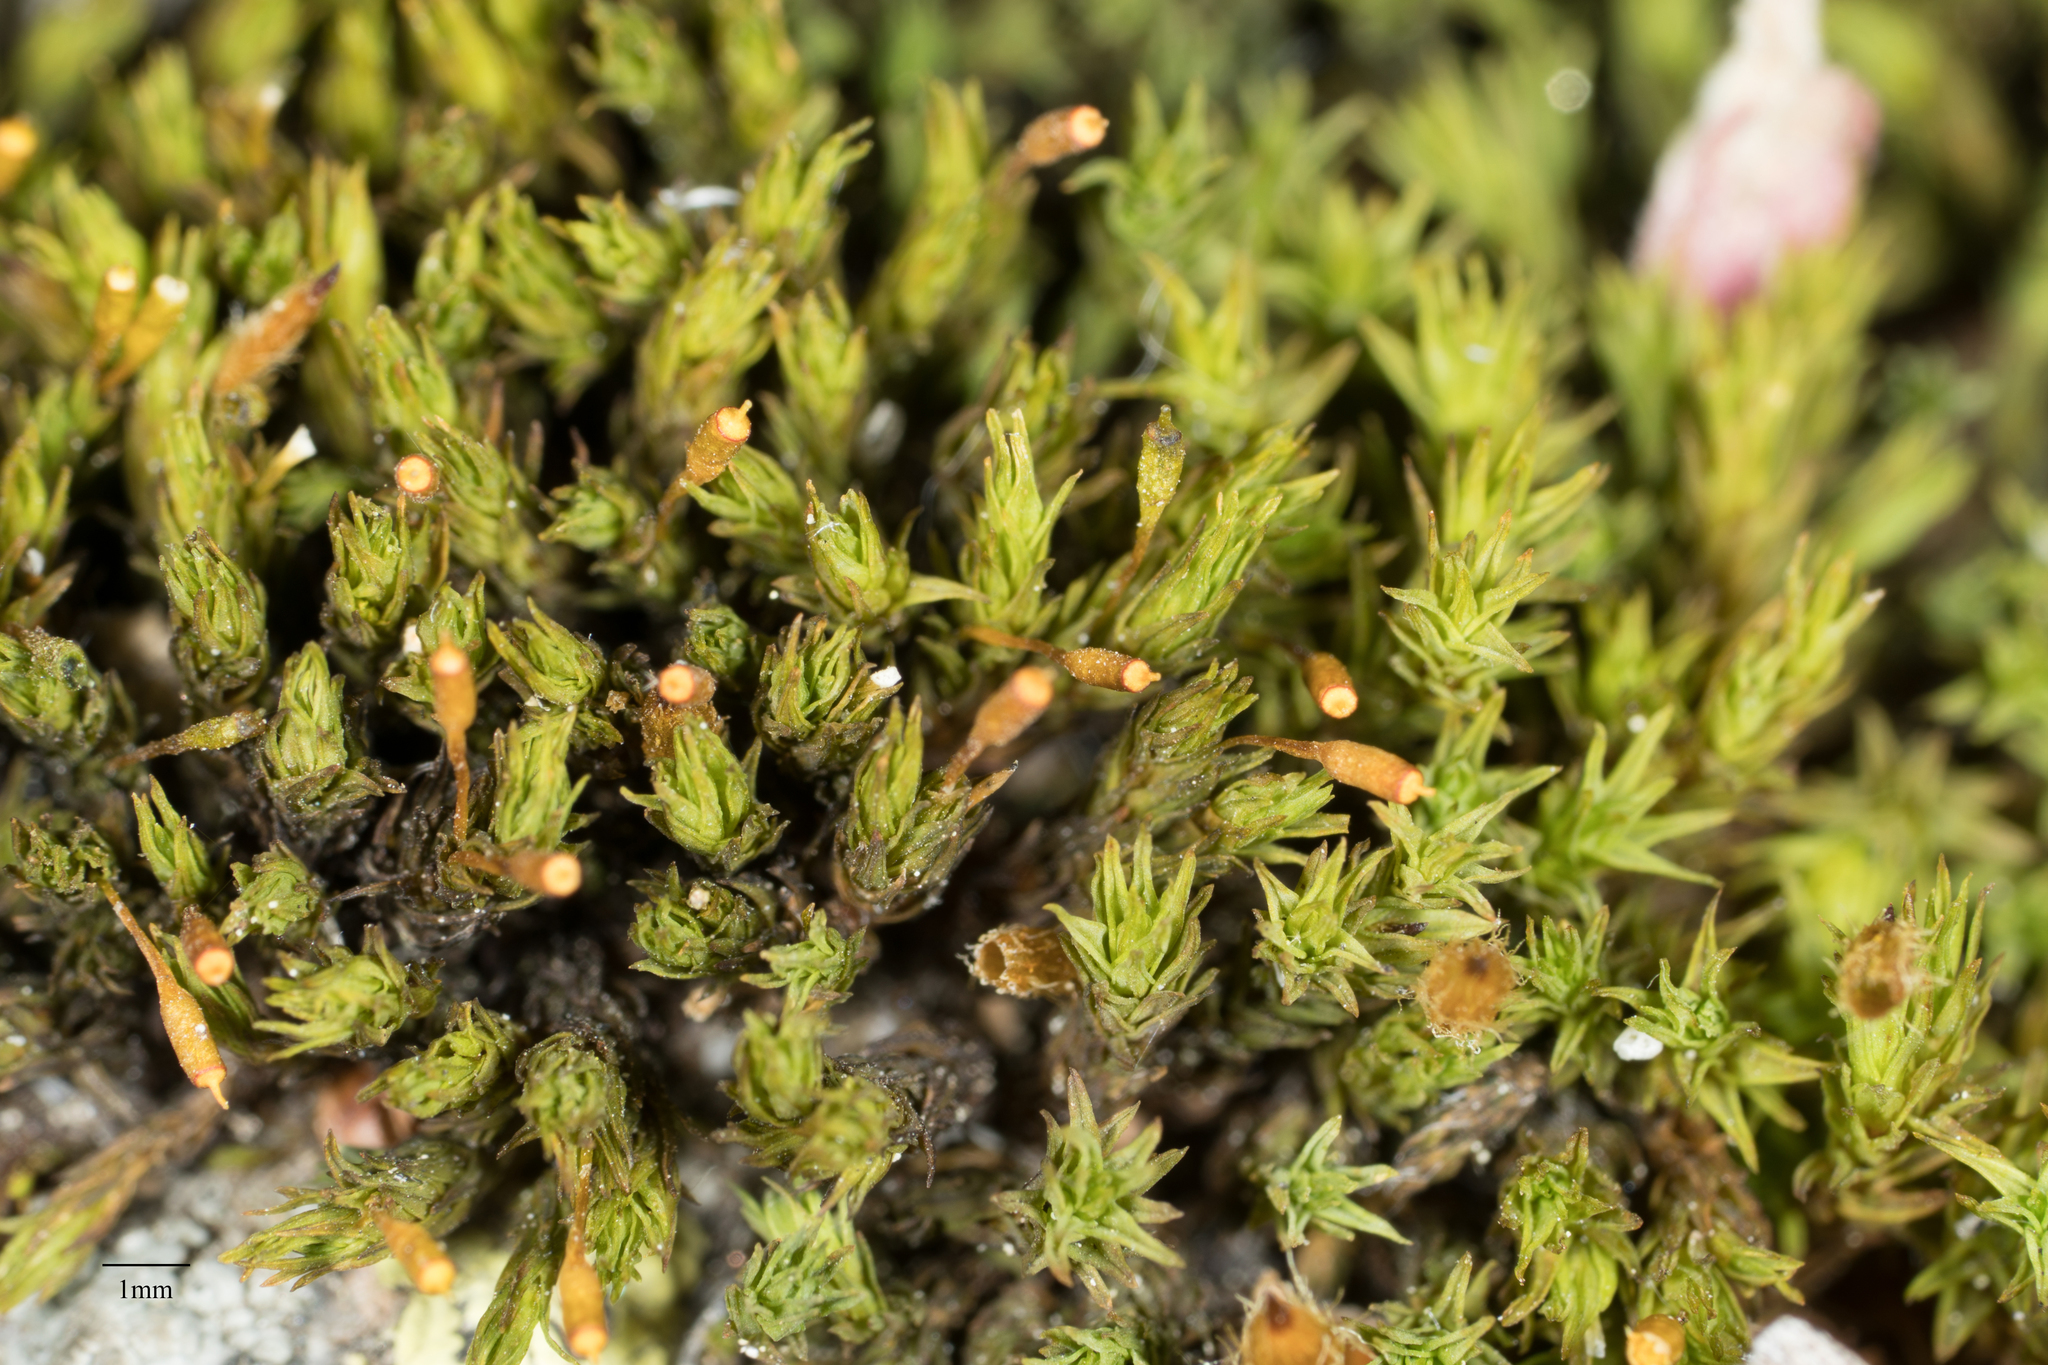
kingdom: Plantae
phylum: Bryophyta
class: Bryopsida
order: Orthotrichales
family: Orthotrichaceae
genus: Lewinskya
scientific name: Lewinskya affinis
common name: Wood bristle-moss
